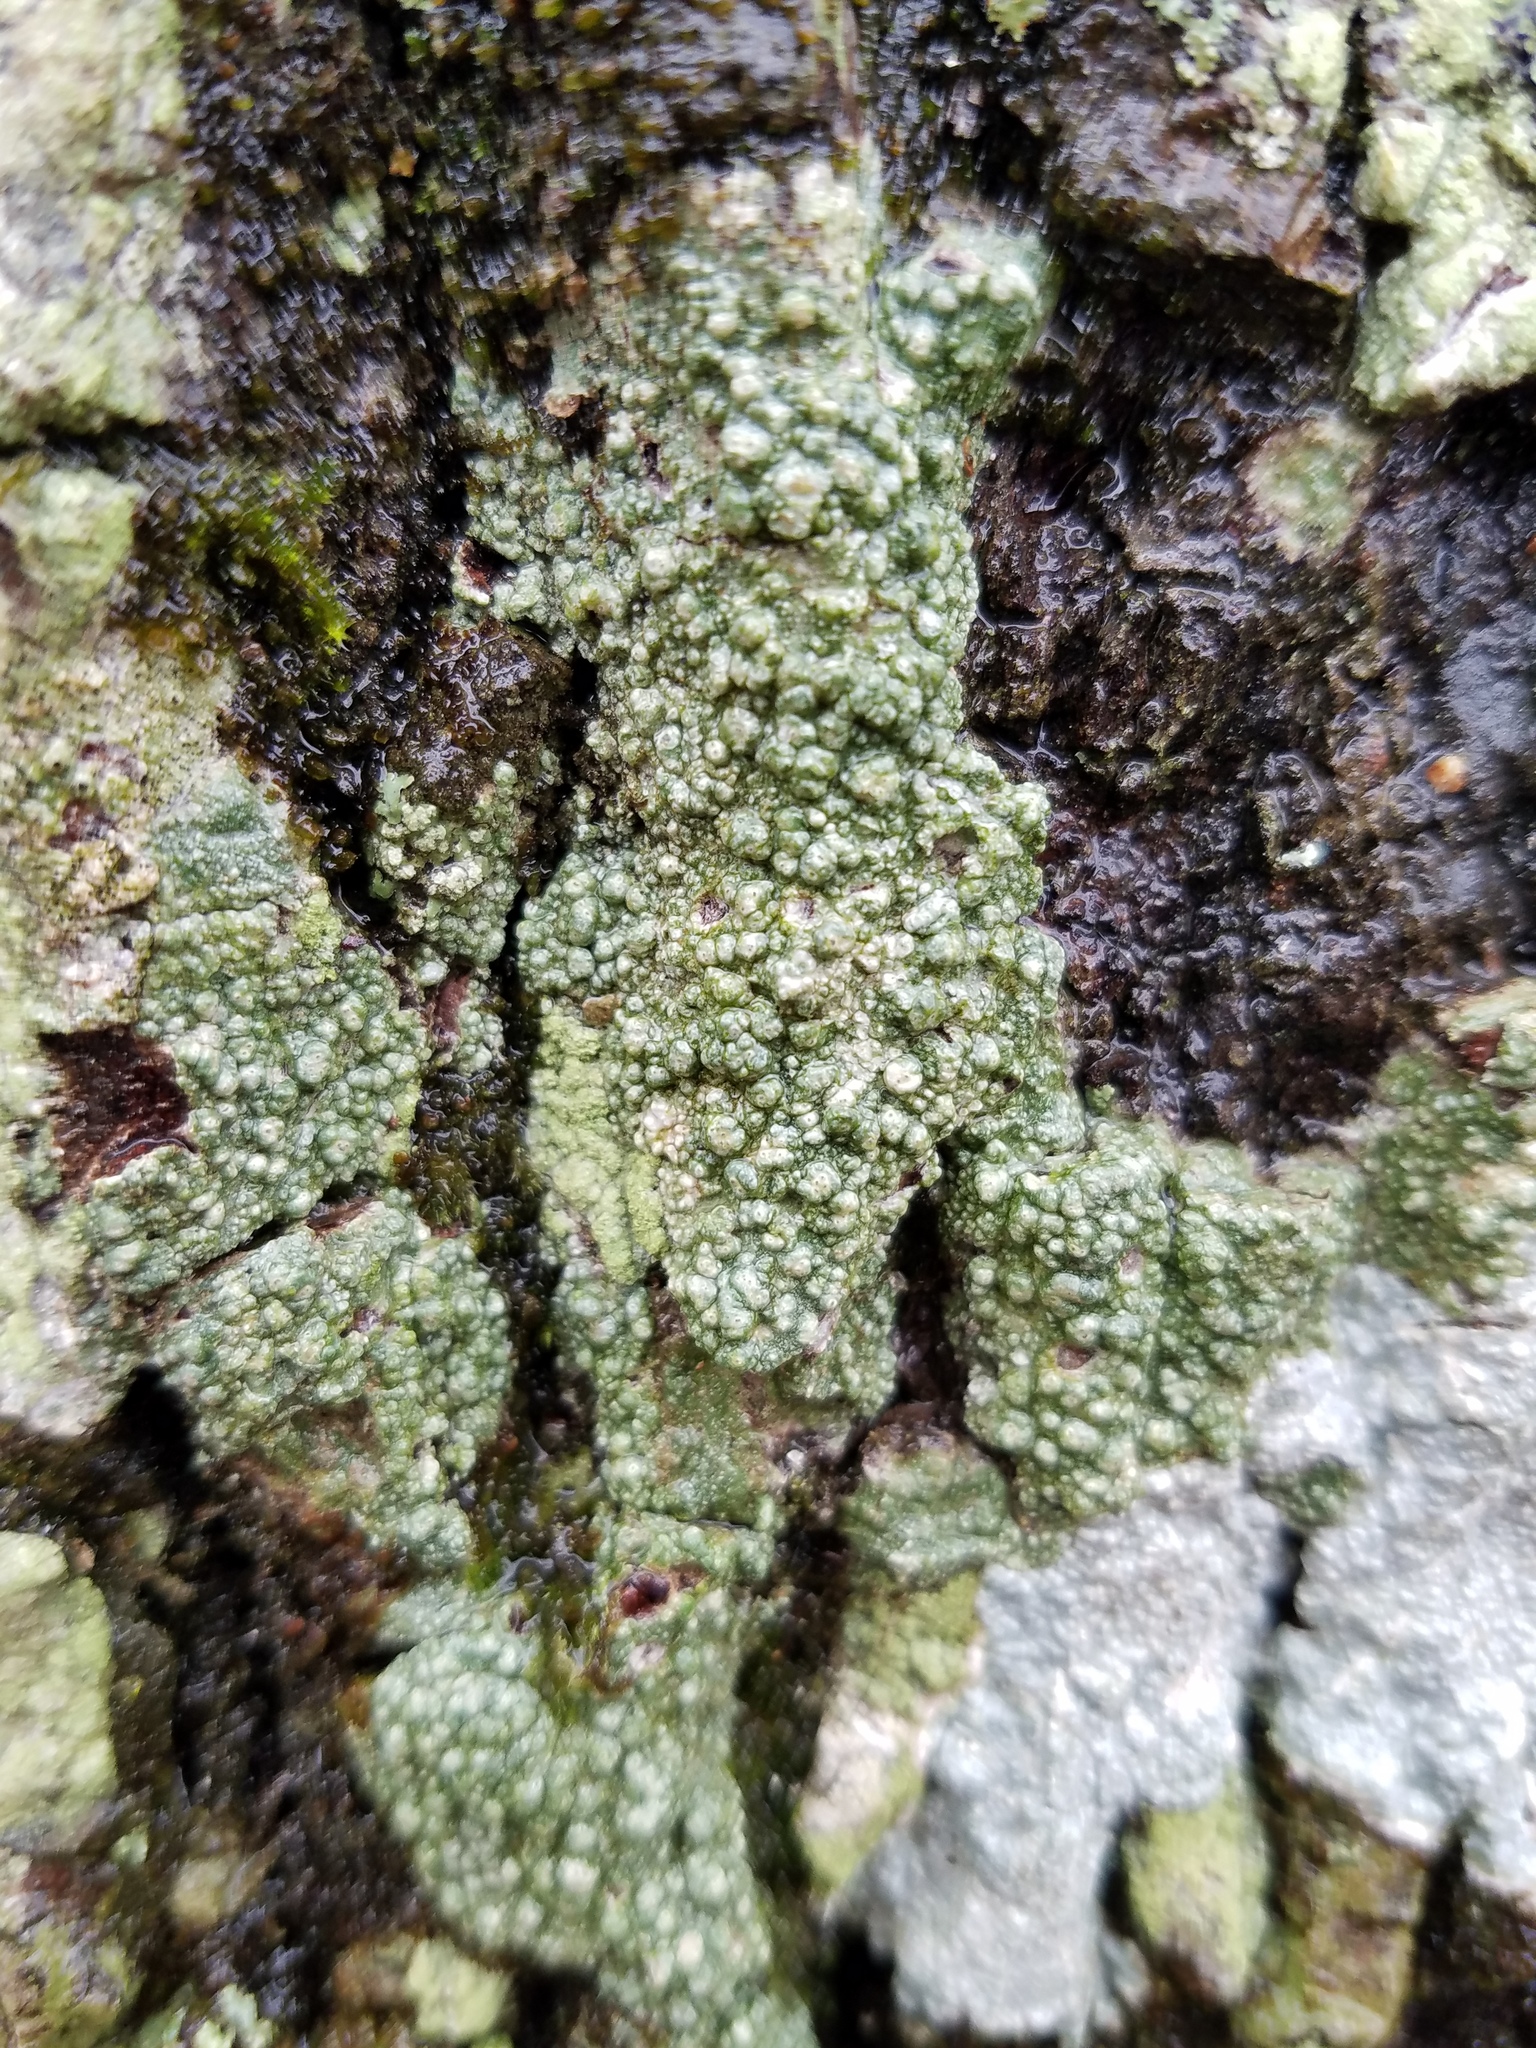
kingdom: Fungi
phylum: Ascomycota
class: Lecanoromycetes
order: Pertusariales
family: Pertusariaceae
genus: Pertusaria
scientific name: Pertusaria paratuberculifera
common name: Spotted wart lichen
